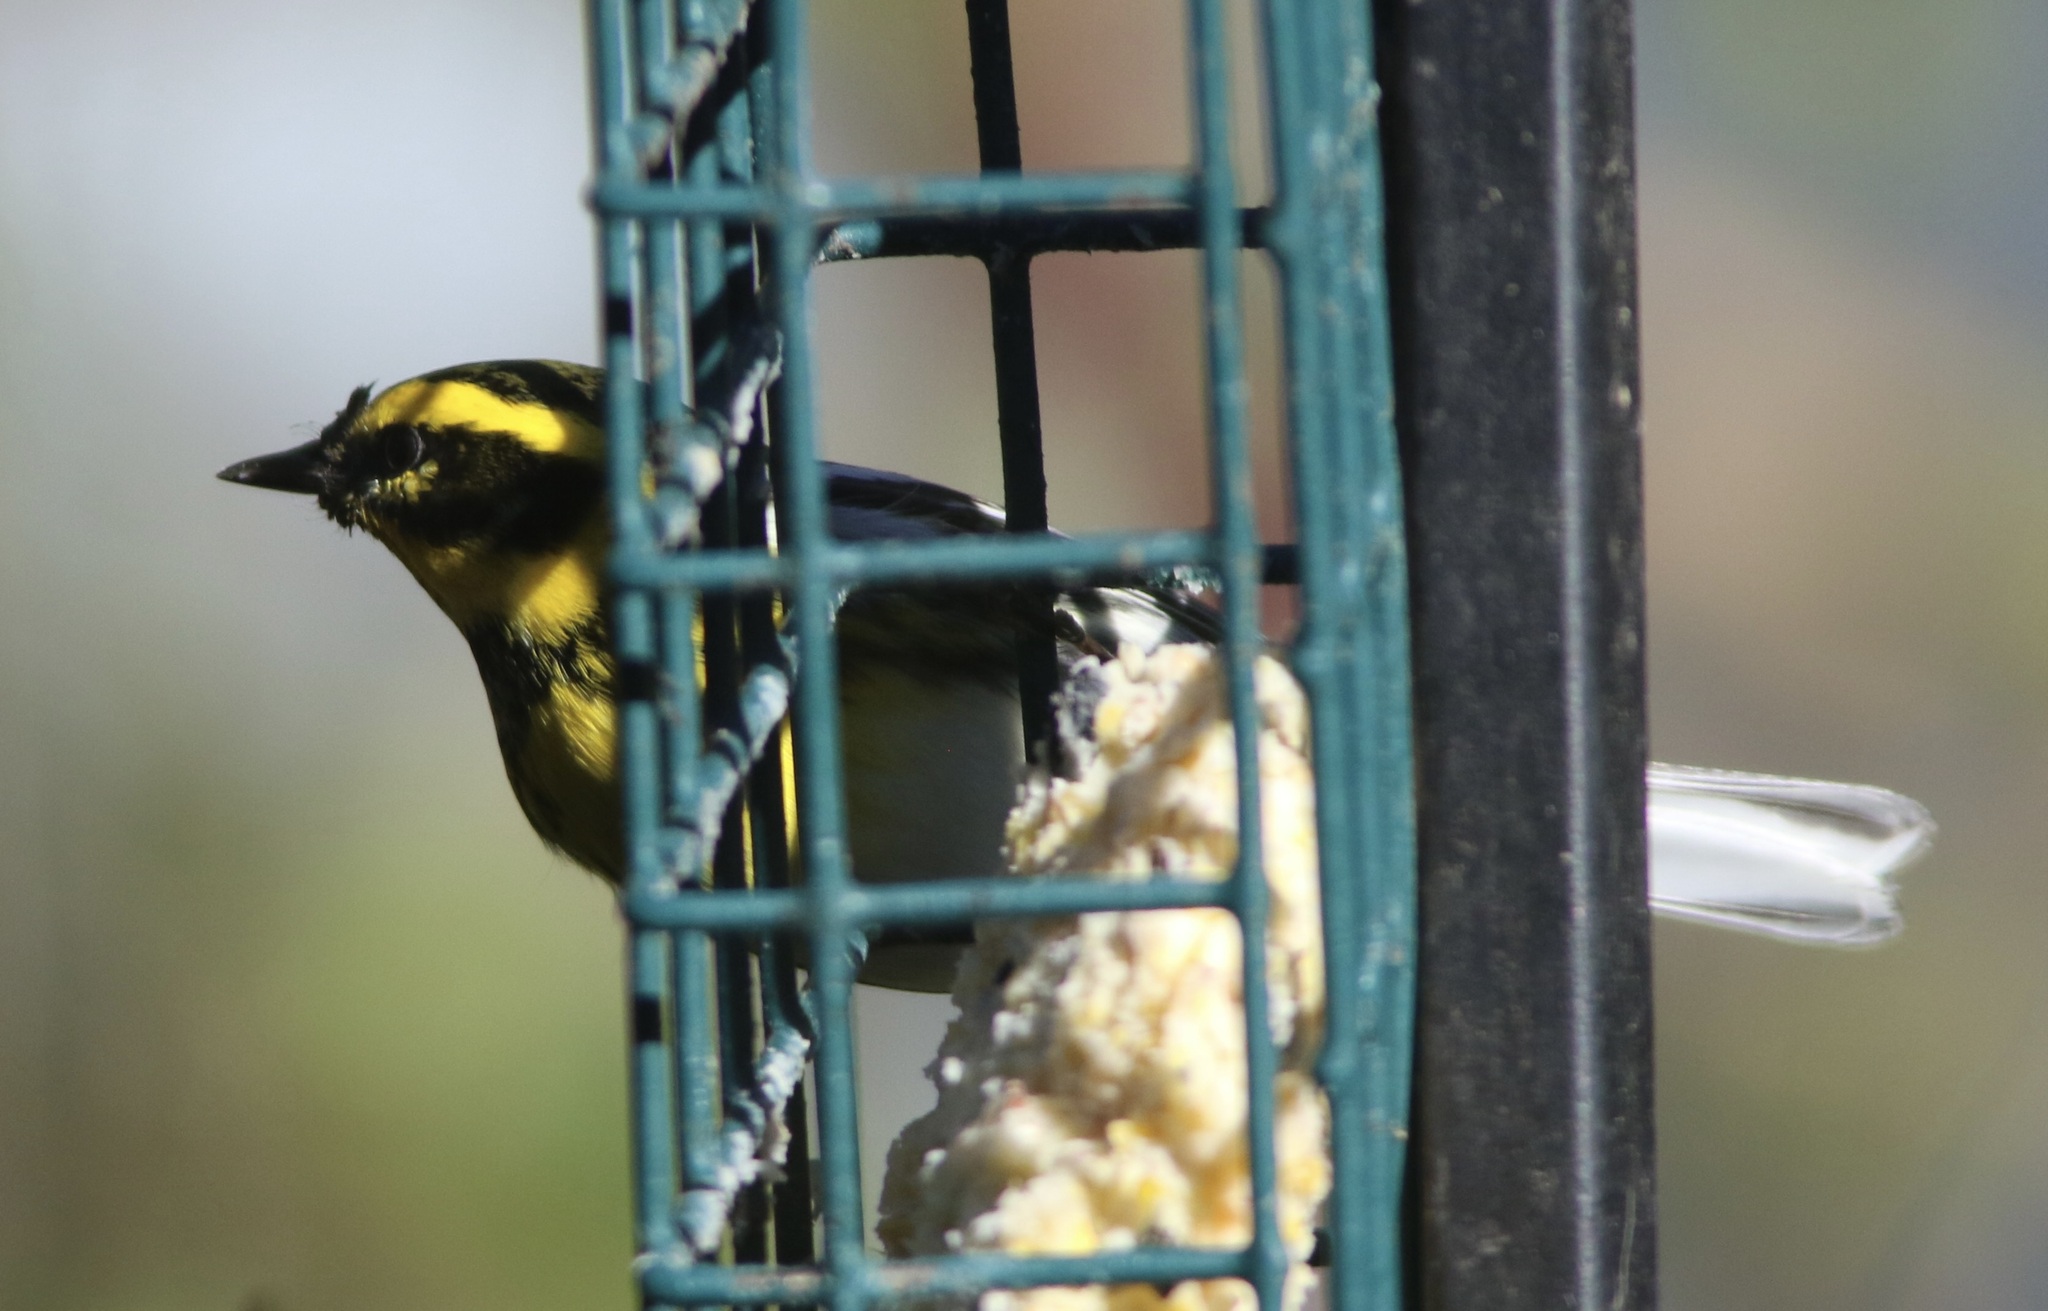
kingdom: Animalia
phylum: Chordata
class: Aves
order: Passeriformes
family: Parulidae
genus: Setophaga
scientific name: Setophaga townsendi
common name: Townsend's warbler
